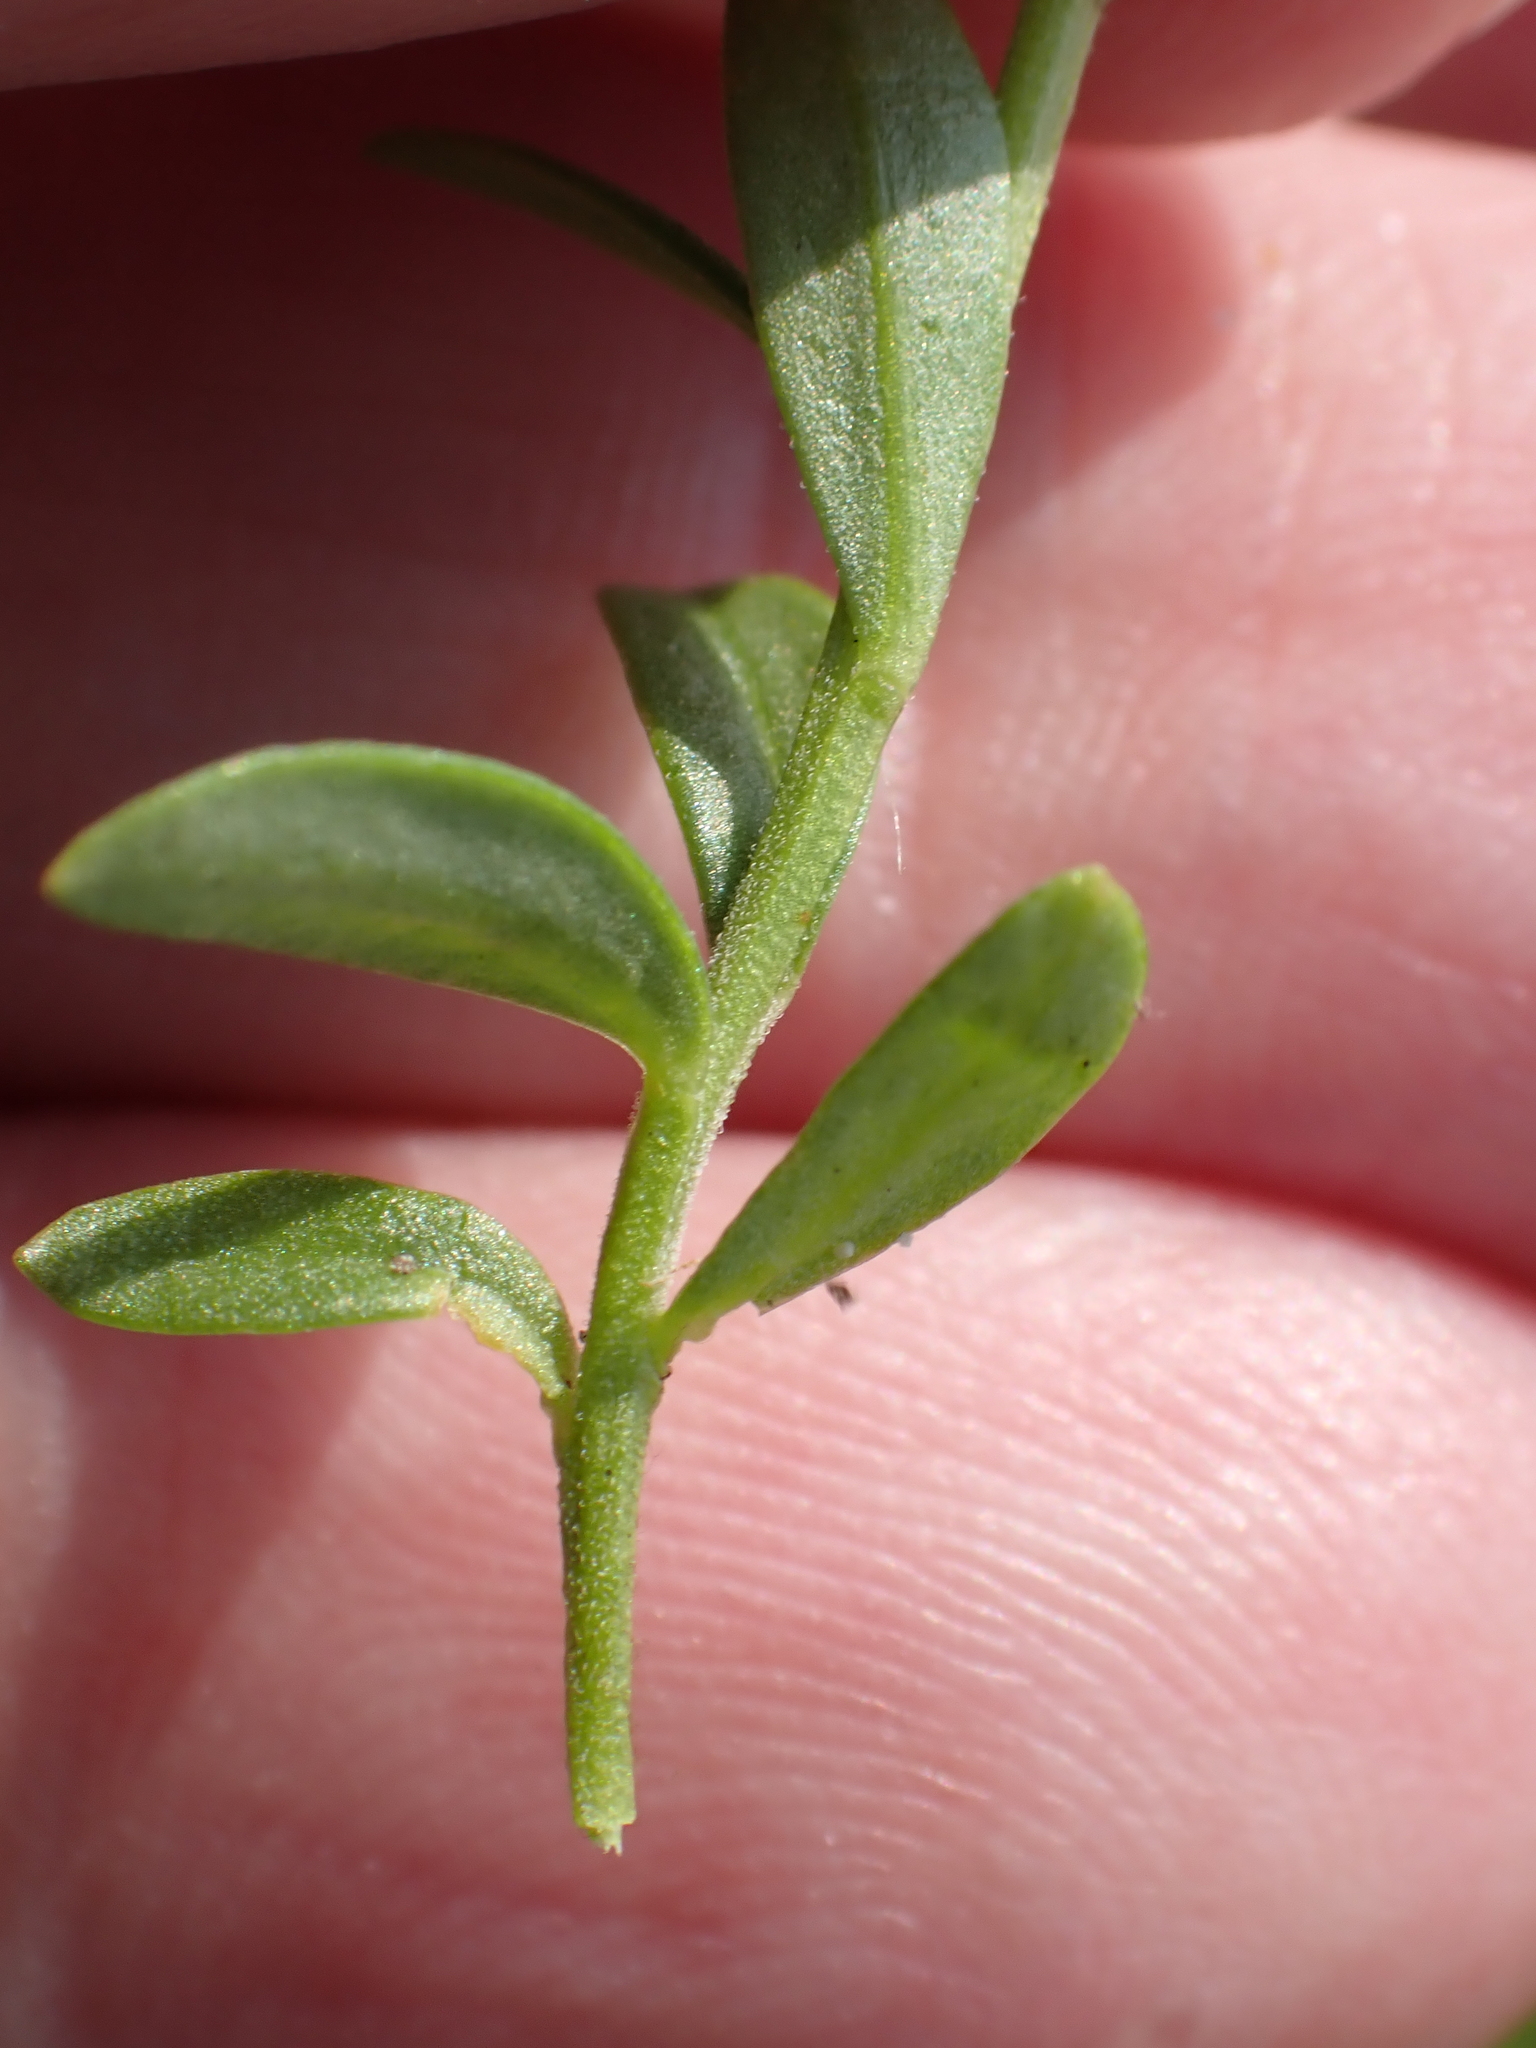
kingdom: Plantae
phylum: Tracheophyta
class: Magnoliopsida
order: Fabales
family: Polygalaceae
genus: Polygala
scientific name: Polygala vulgaris
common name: Common milkwort
